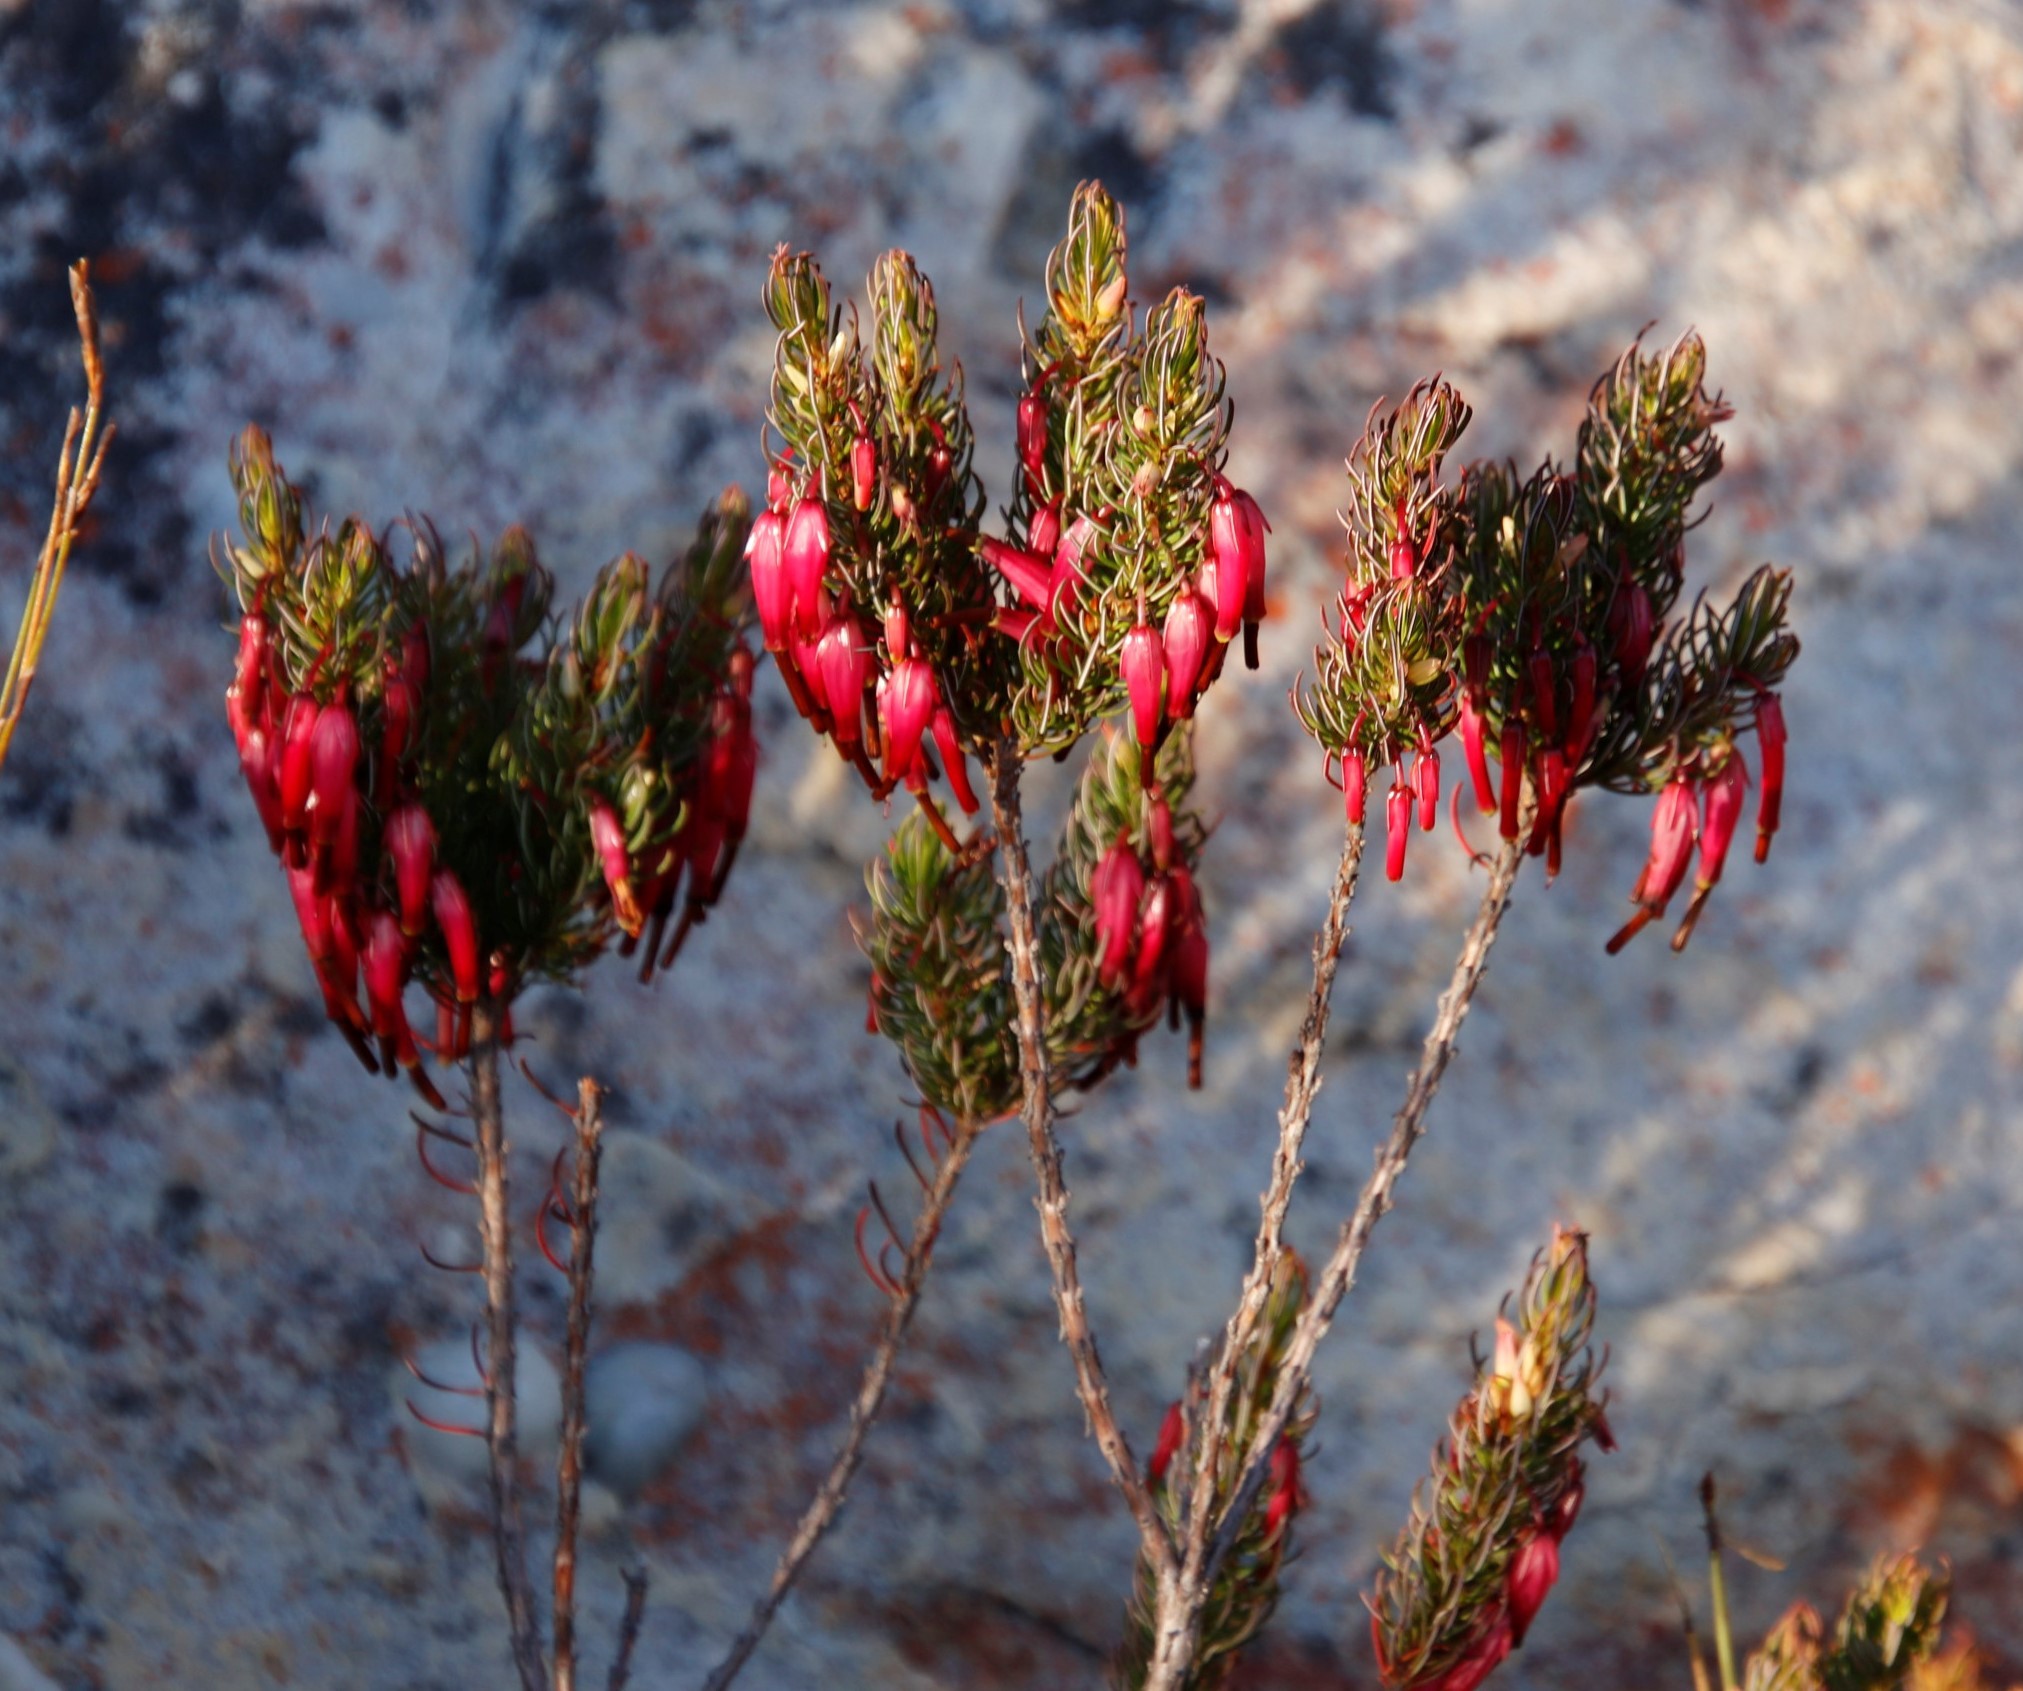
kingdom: Plantae
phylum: Tracheophyta
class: Magnoliopsida
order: Ericales
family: Ericaceae
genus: Erica
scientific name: Erica plukenetii
